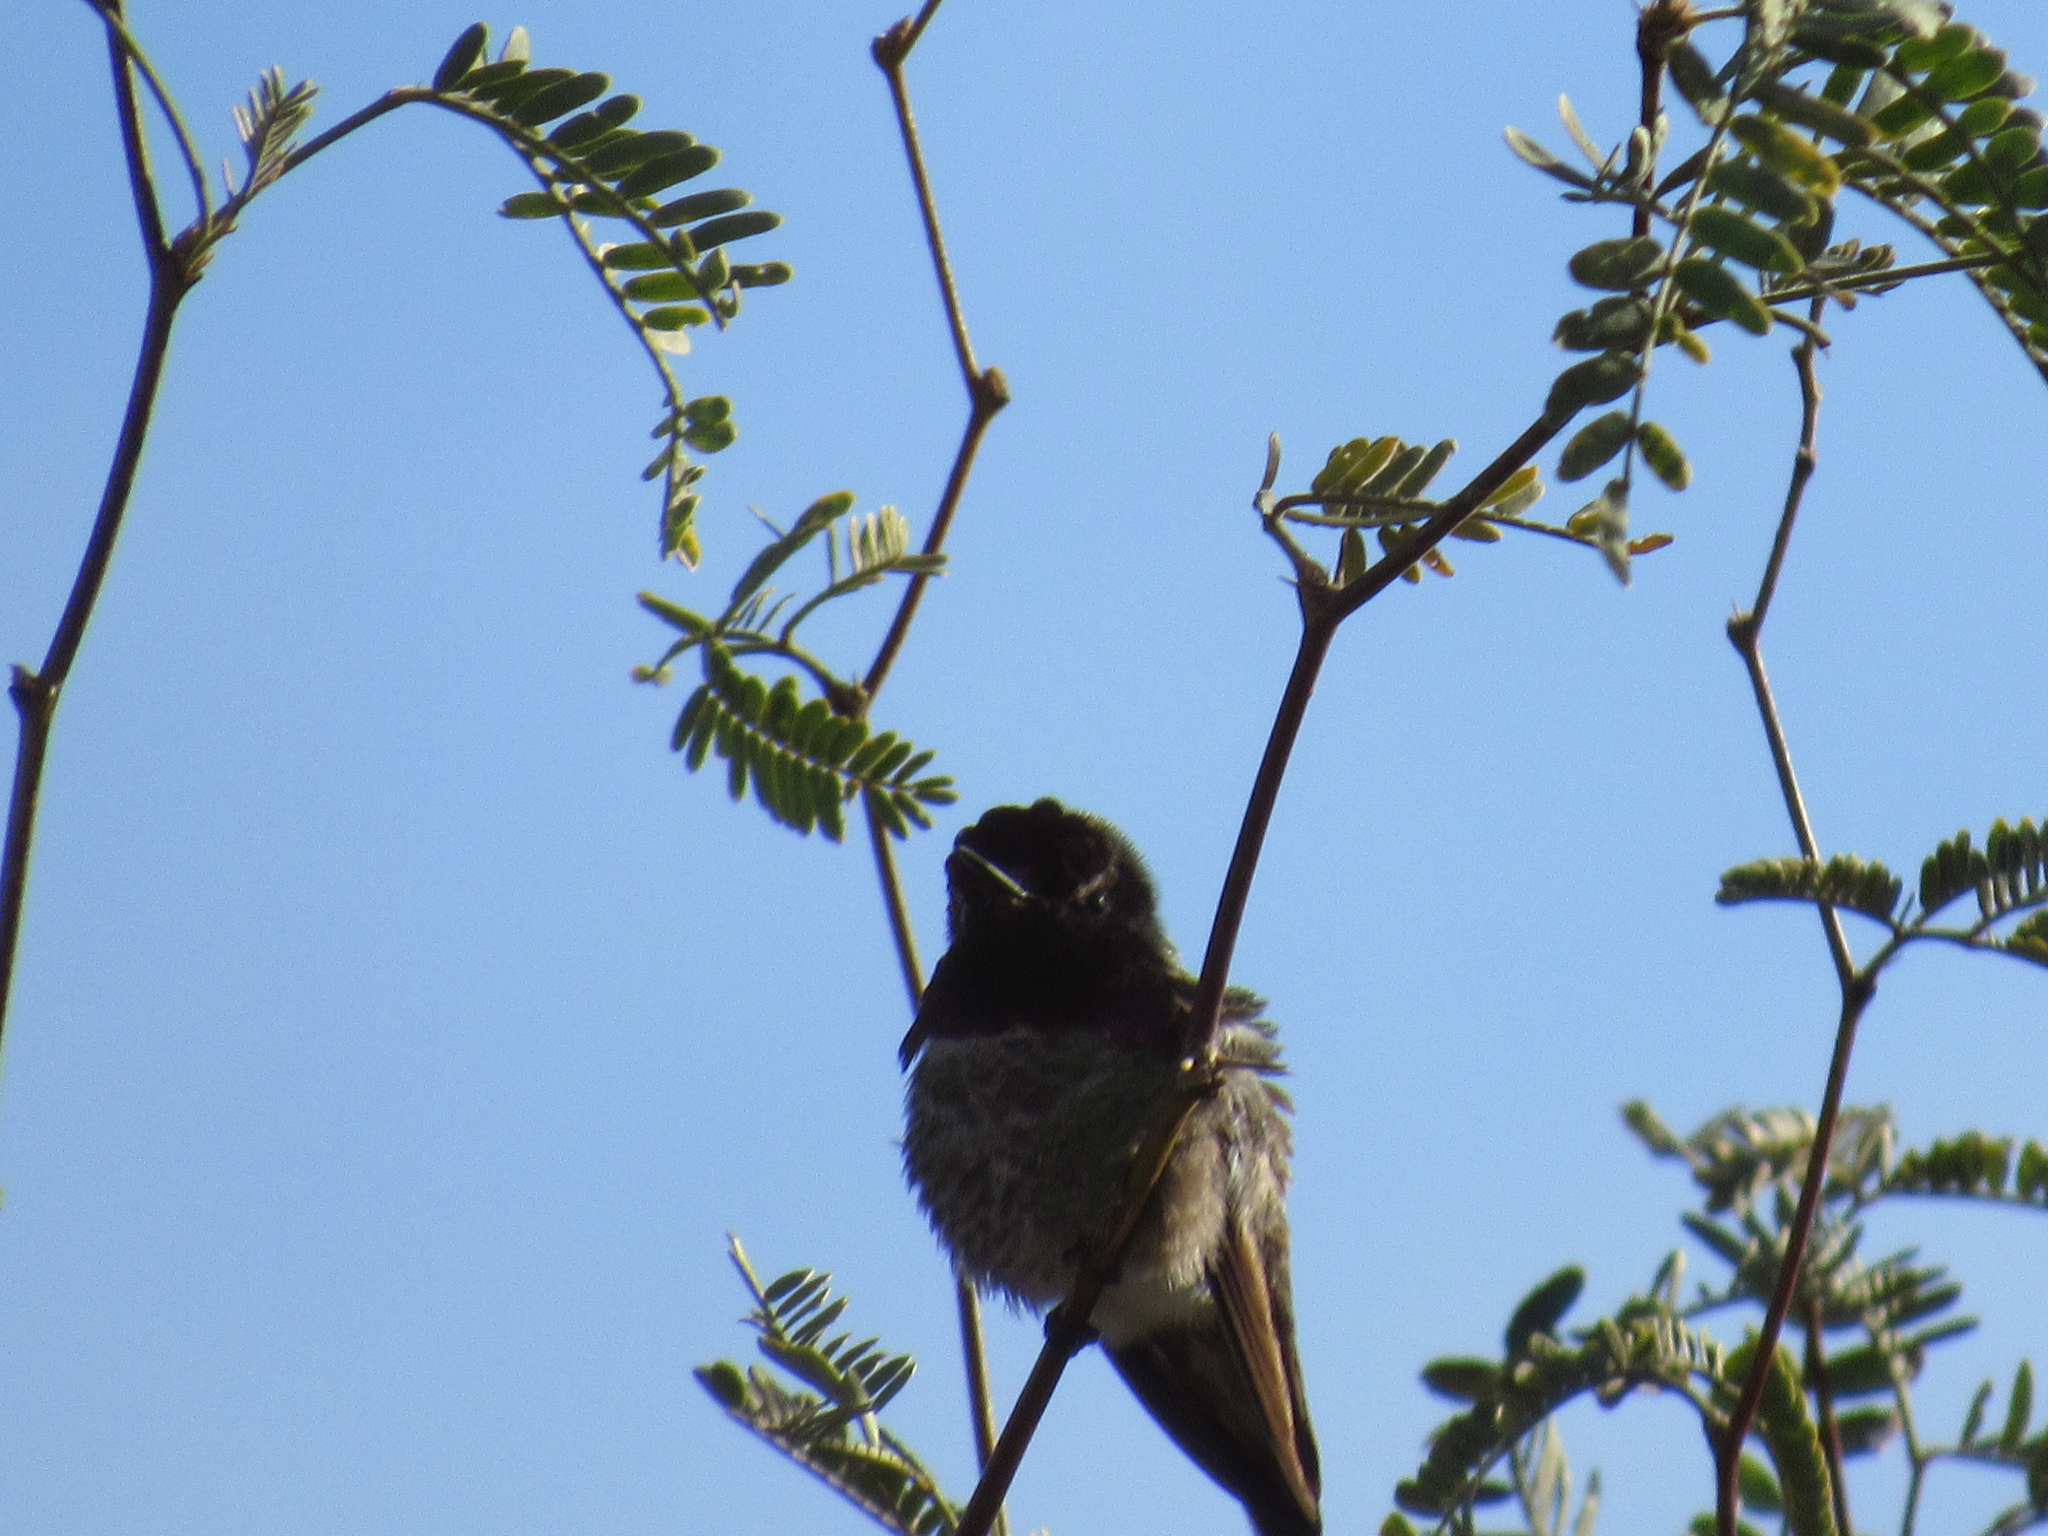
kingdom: Animalia
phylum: Chordata
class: Aves
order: Apodiformes
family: Trochilidae
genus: Calypte
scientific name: Calypte costae
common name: Costa's hummingbird
